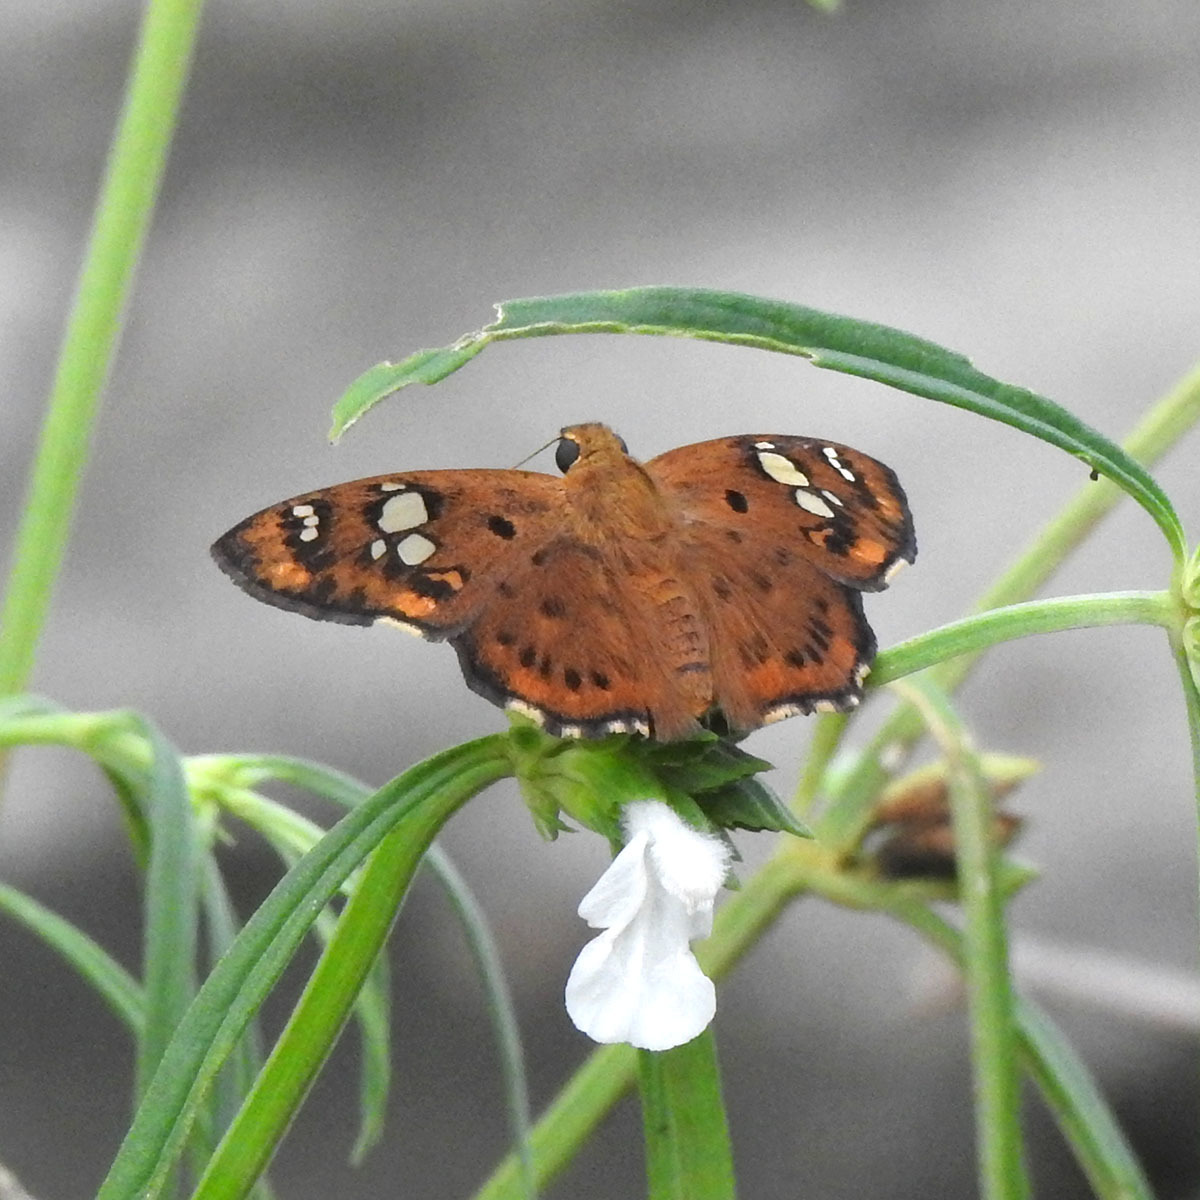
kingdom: Animalia
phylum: Arthropoda
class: Insecta
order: Lepidoptera
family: Hesperiidae
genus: Coladenia
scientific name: Coladenia
